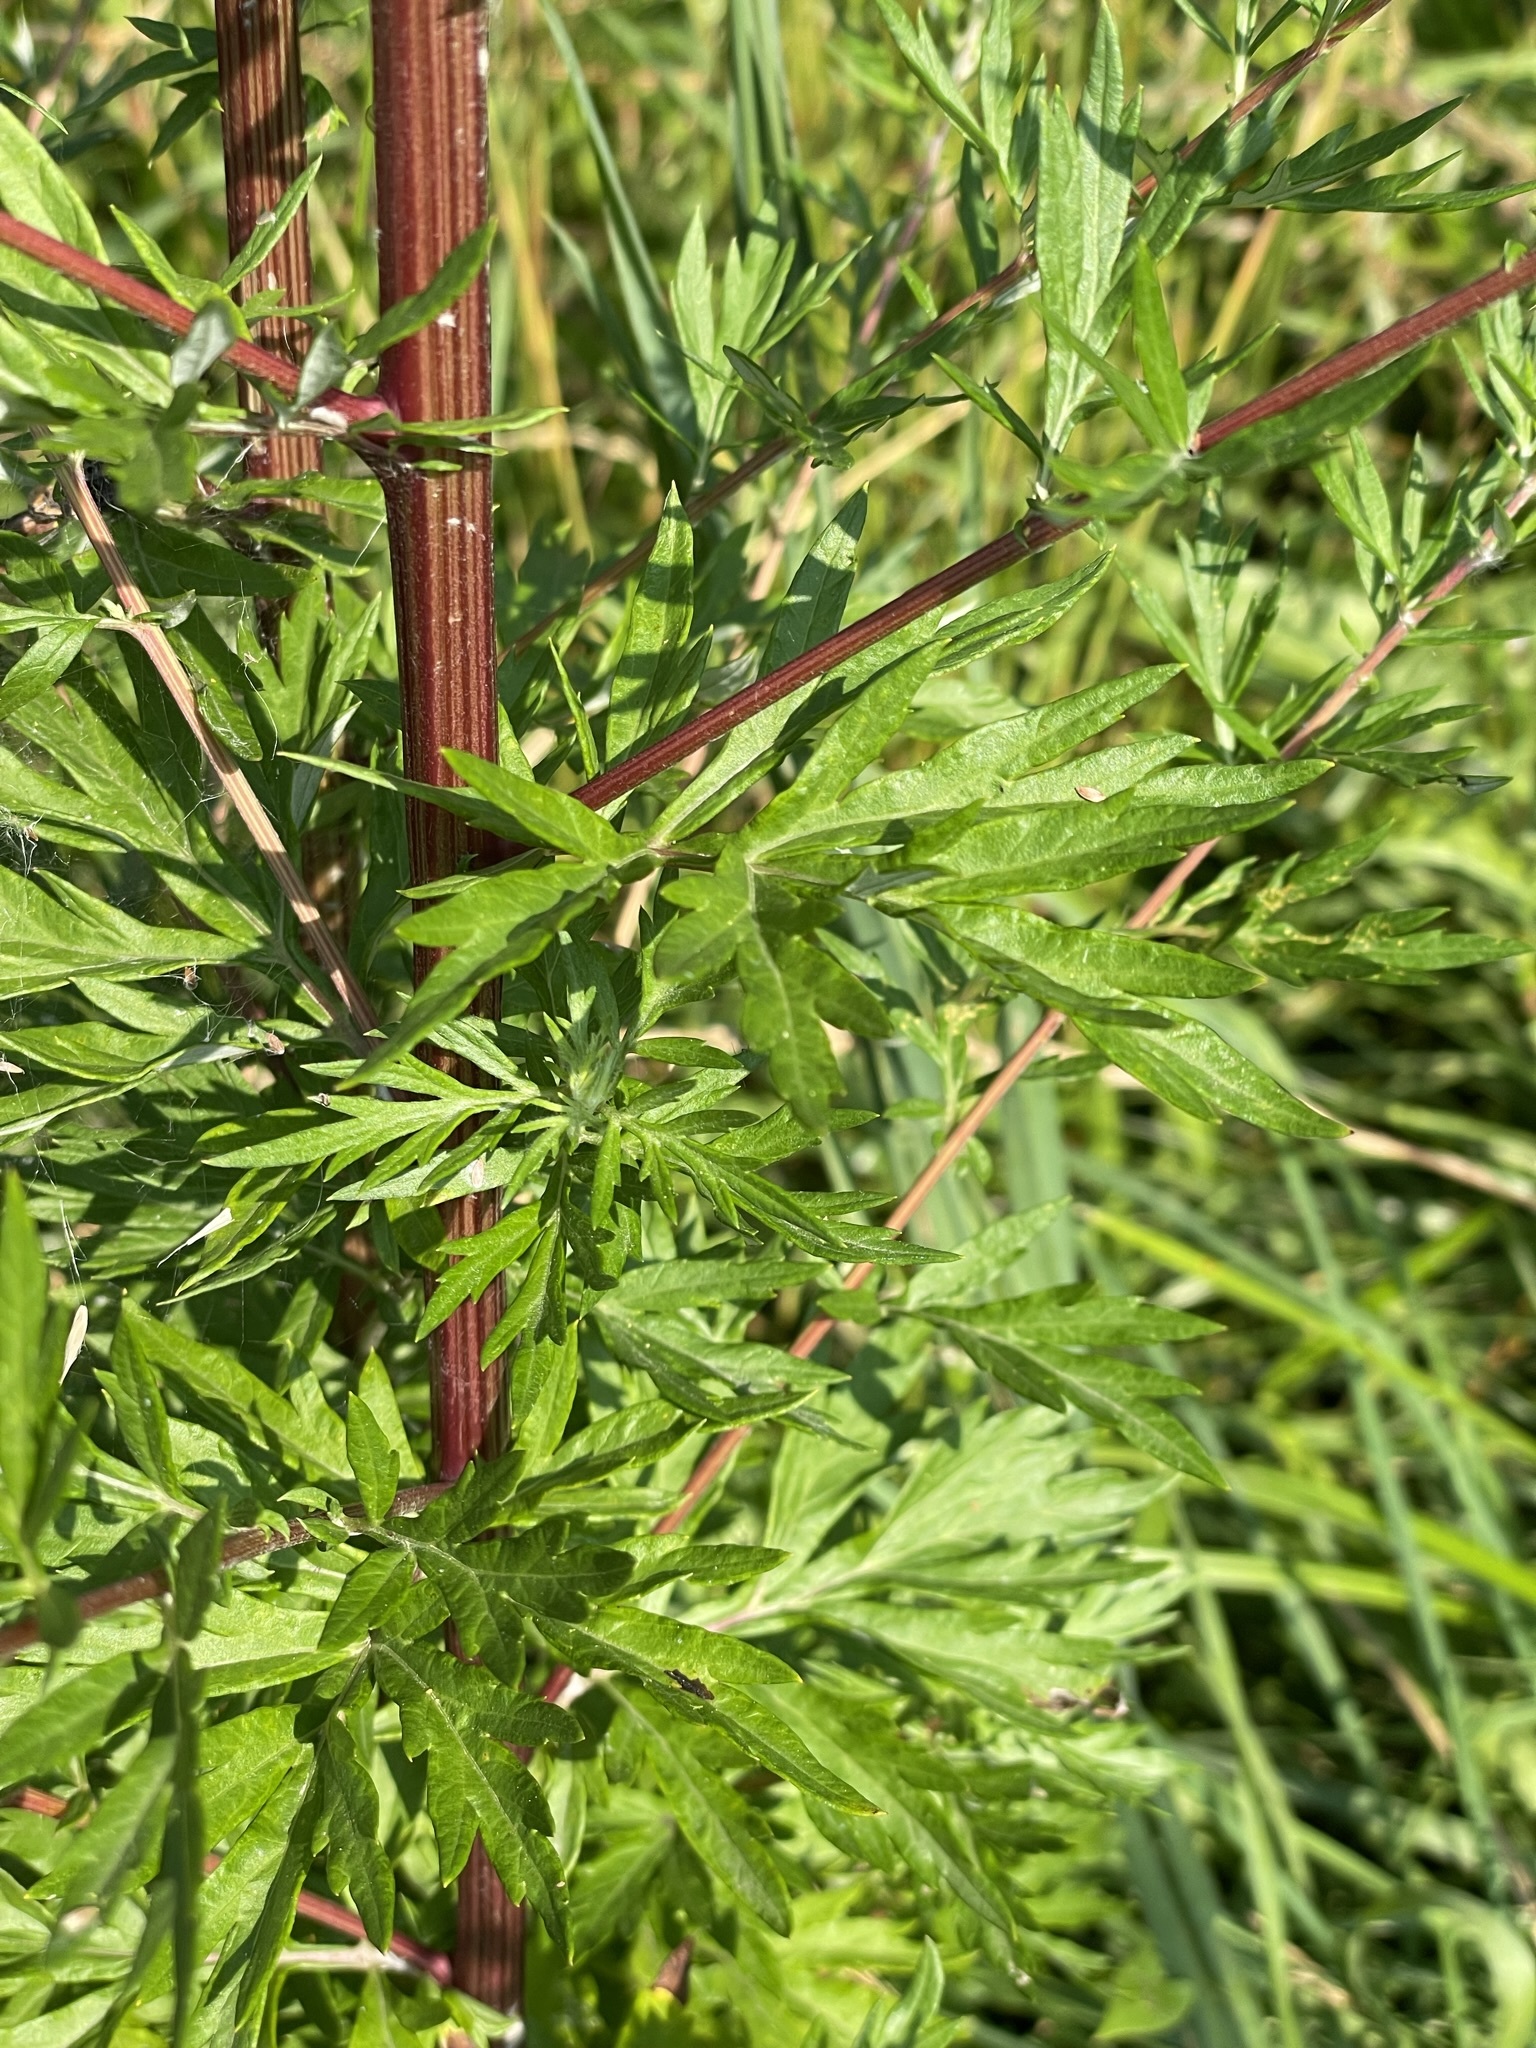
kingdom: Plantae
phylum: Tracheophyta
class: Magnoliopsida
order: Asterales
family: Asteraceae
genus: Artemisia
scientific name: Artemisia vulgaris
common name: Mugwort
